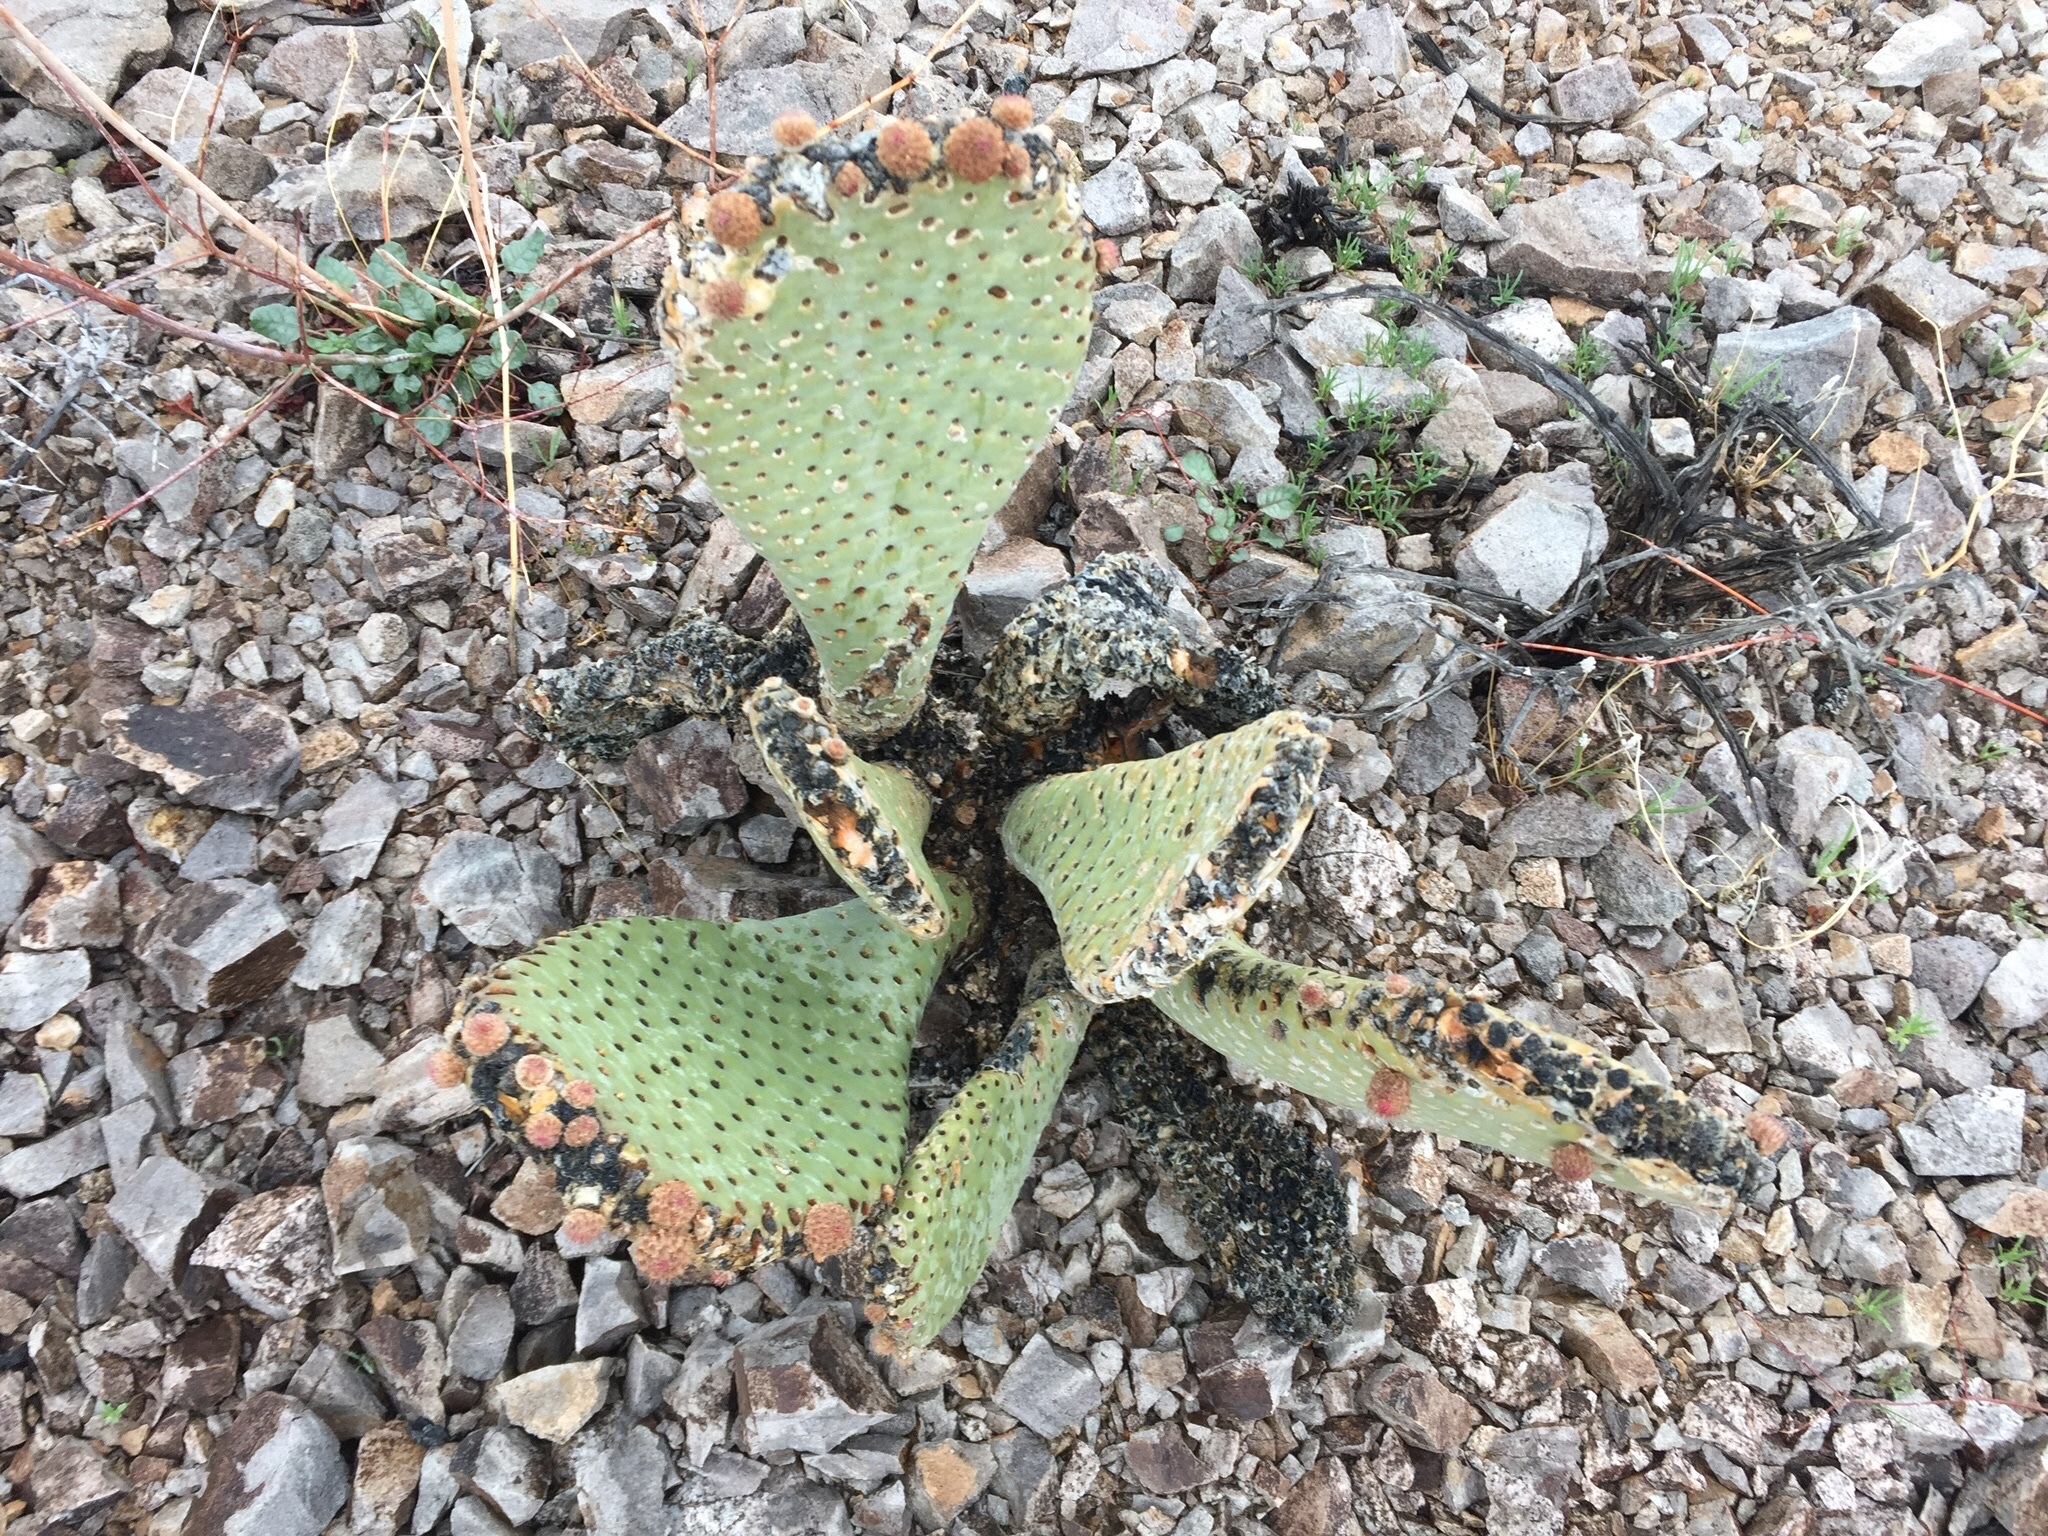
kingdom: Plantae
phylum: Tracheophyta
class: Magnoliopsida
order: Caryophyllales
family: Cactaceae
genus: Opuntia
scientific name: Opuntia basilaris
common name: Beavertail prickly-pear
